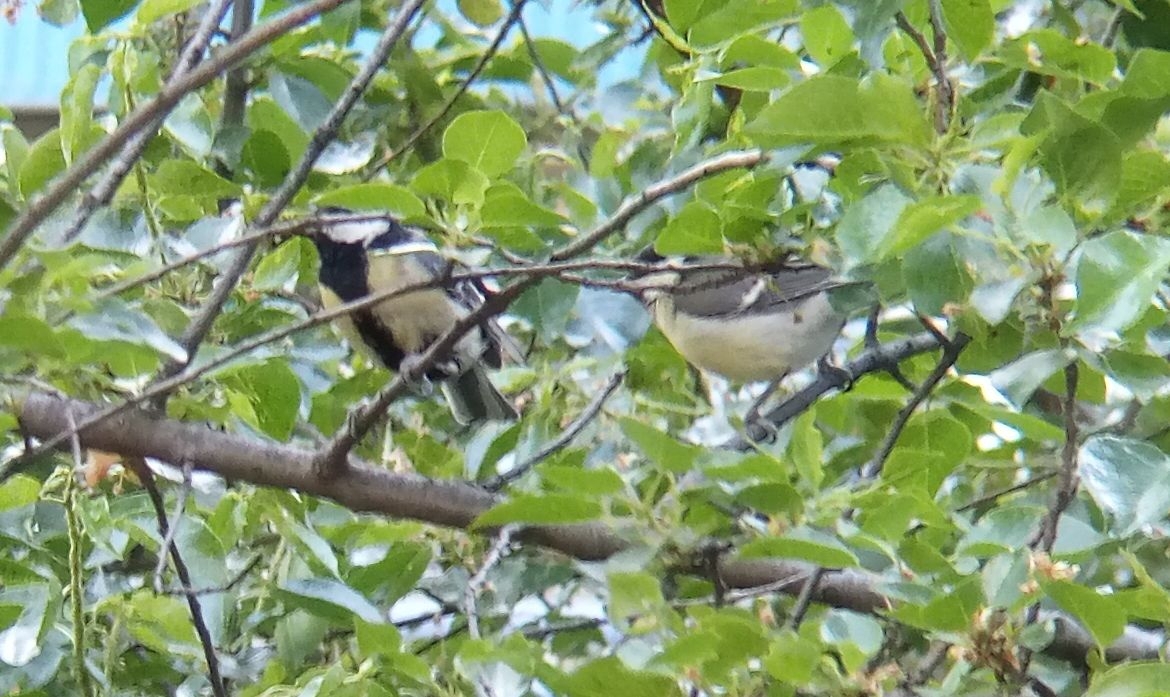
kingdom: Animalia
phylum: Chordata
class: Aves
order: Passeriformes
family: Paridae
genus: Parus
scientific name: Parus major
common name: Great tit
